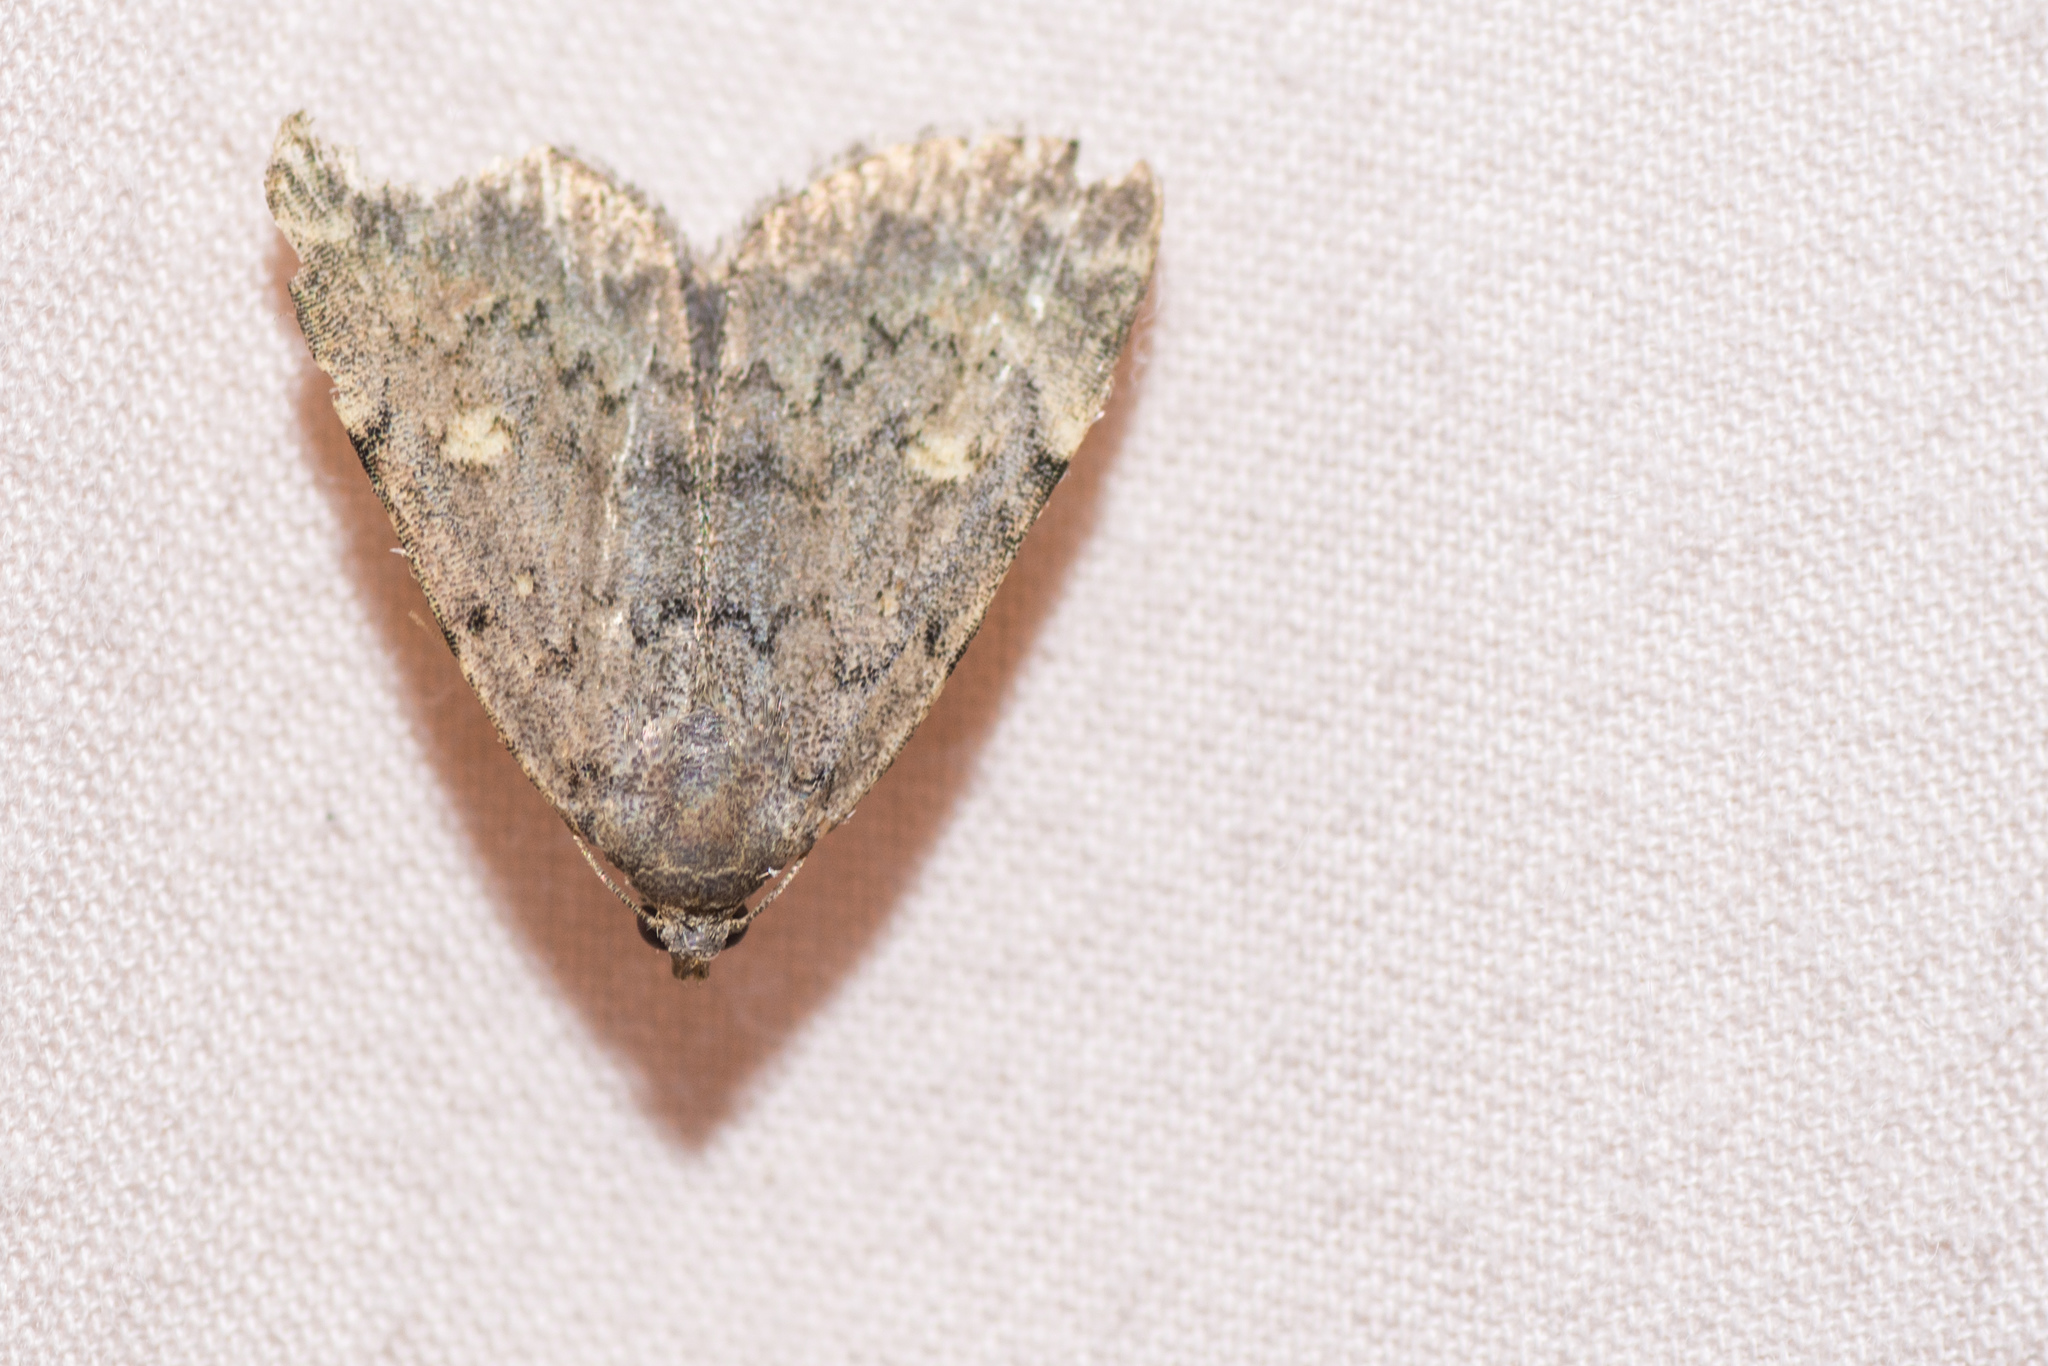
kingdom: Animalia
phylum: Arthropoda
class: Insecta
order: Lepidoptera
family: Erebidae
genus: Idia
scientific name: Idia aemula
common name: Common idia moth
